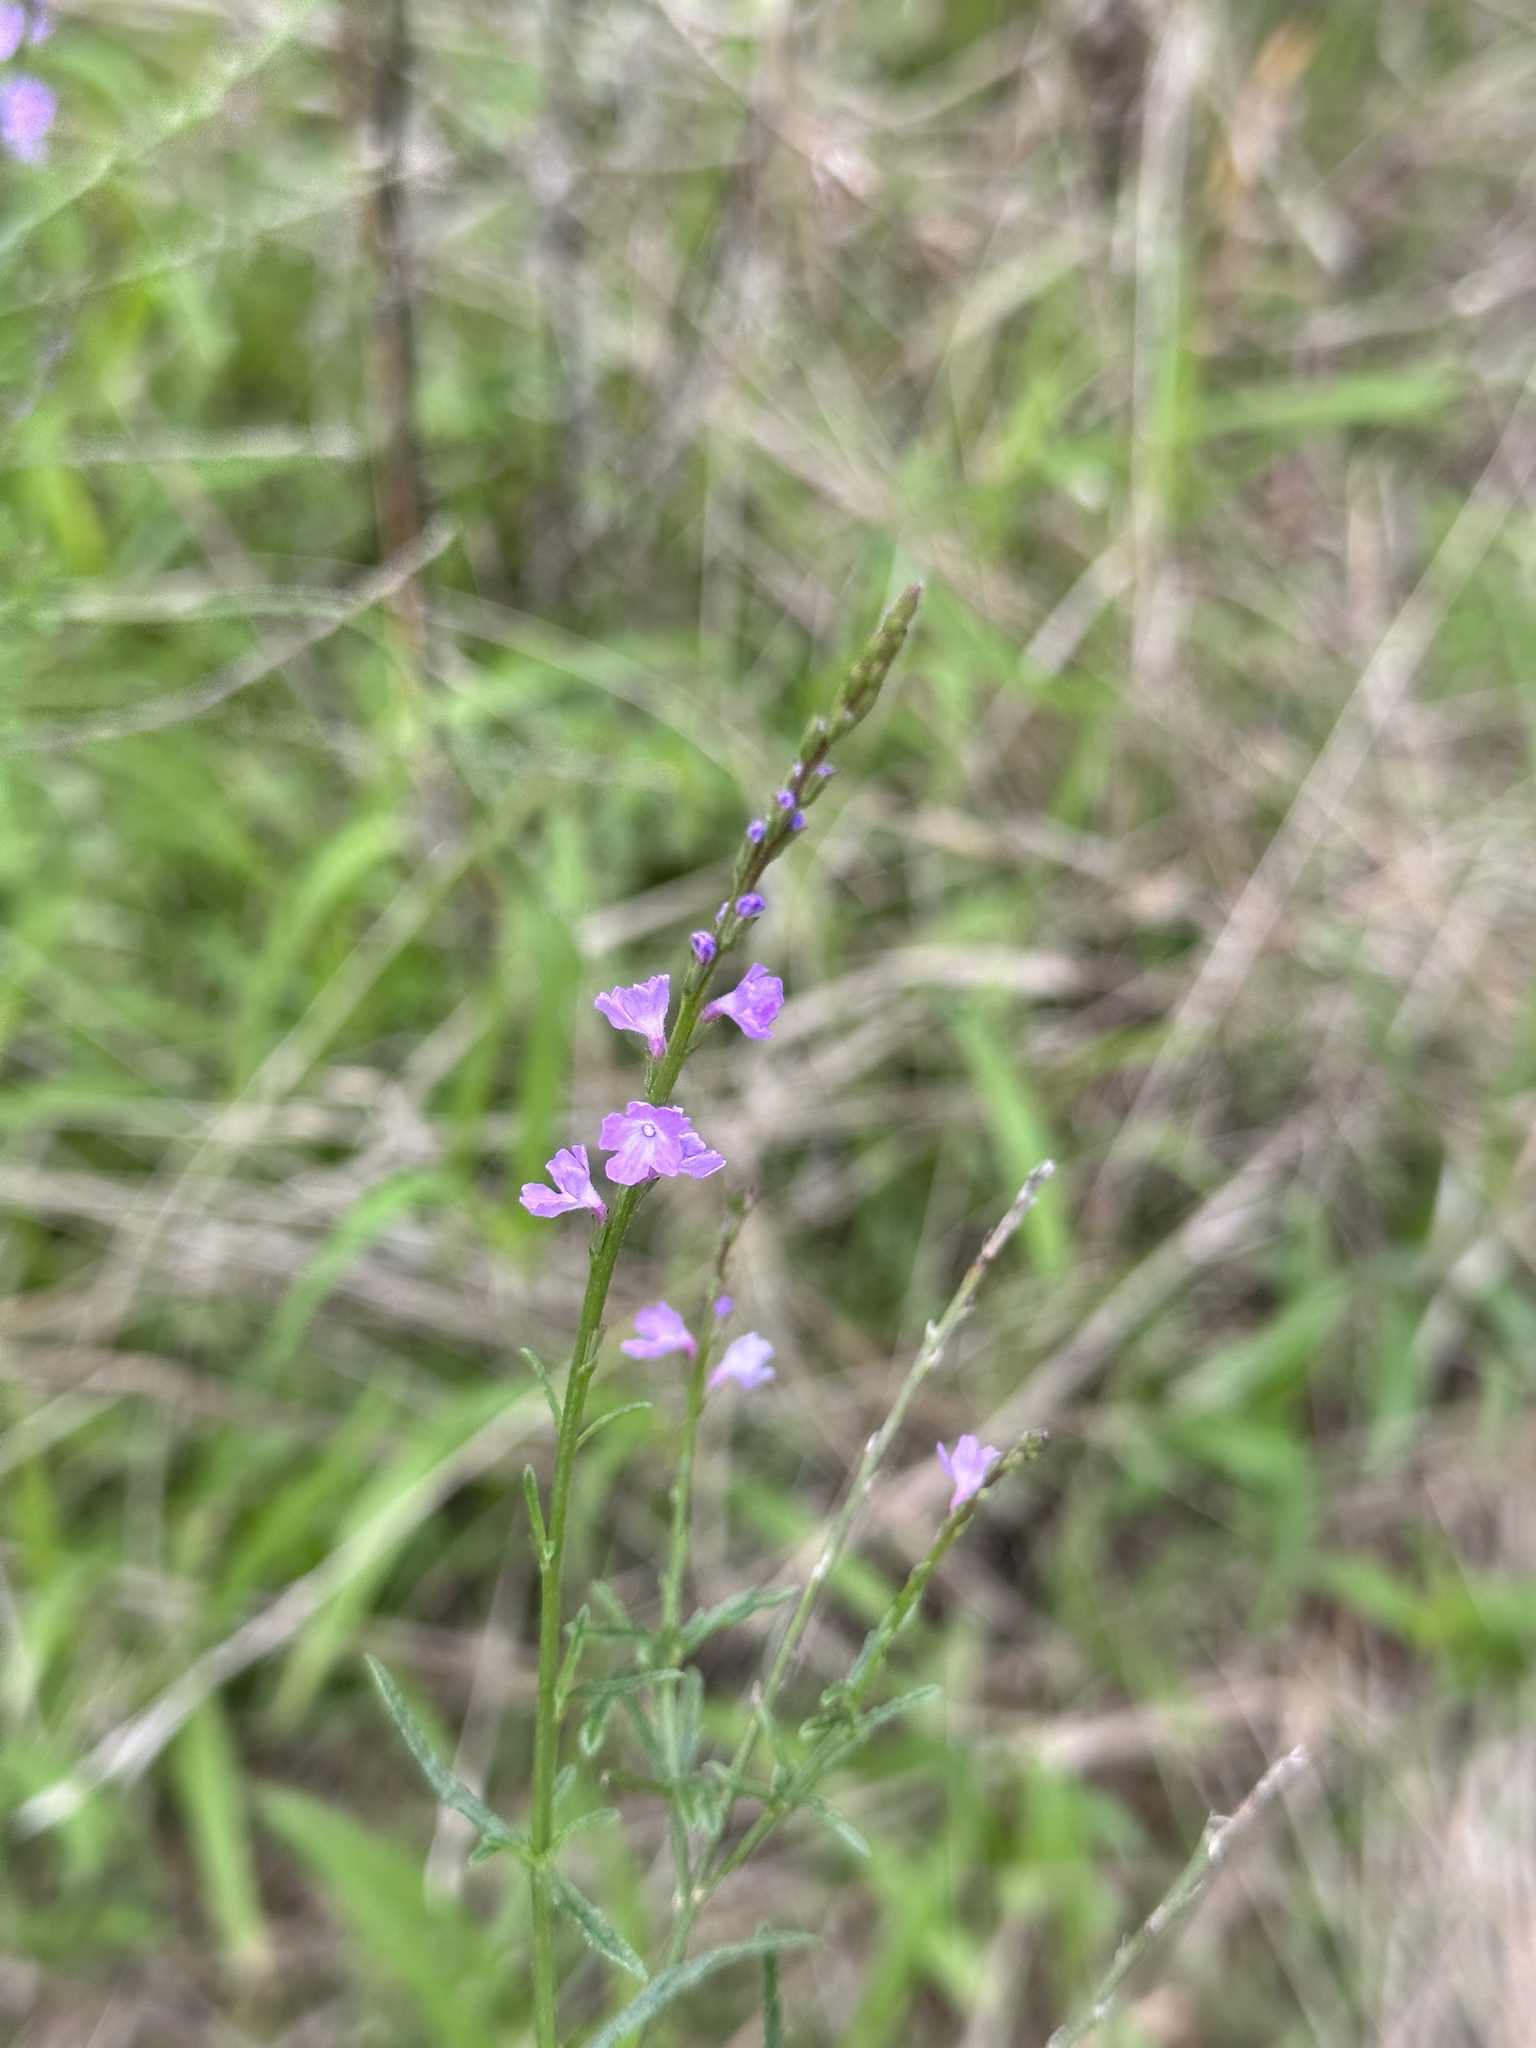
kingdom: Plantae
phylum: Tracheophyta
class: Magnoliopsida
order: Lamiales
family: Verbenaceae
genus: Verbena
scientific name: Verbena halei
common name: Texas vervain
